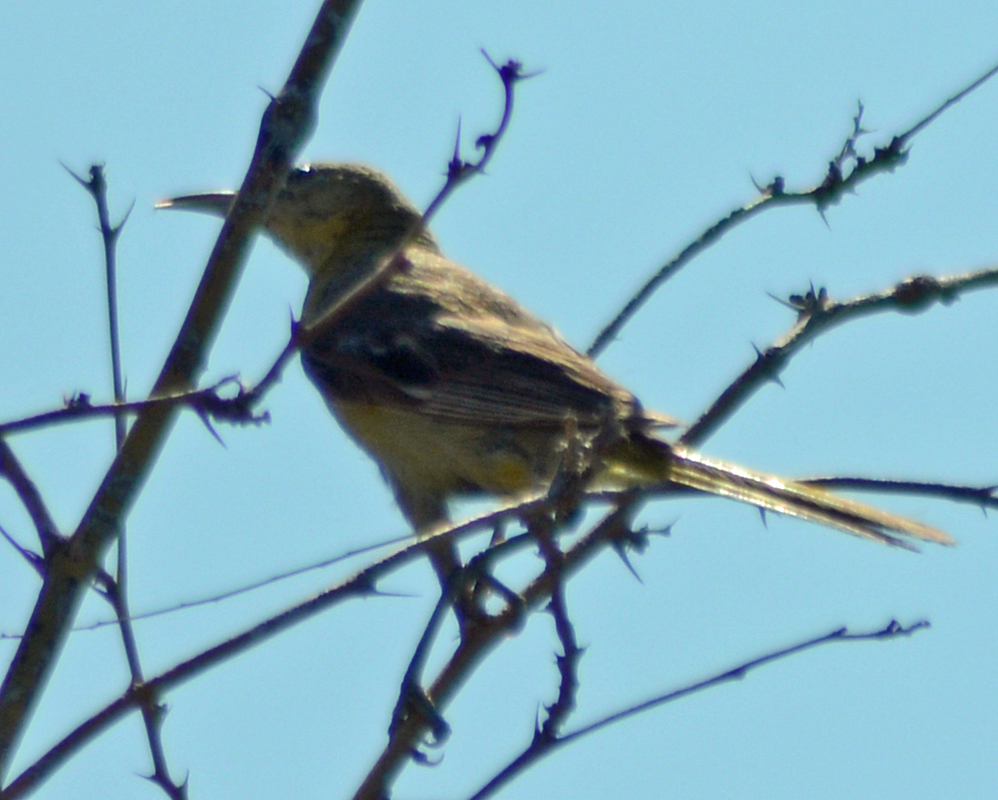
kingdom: Animalia
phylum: Chordata
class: Aves
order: Passeriformes
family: Icteridae
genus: Icterus
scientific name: Icterus cucullatus
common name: Hooded oriole
